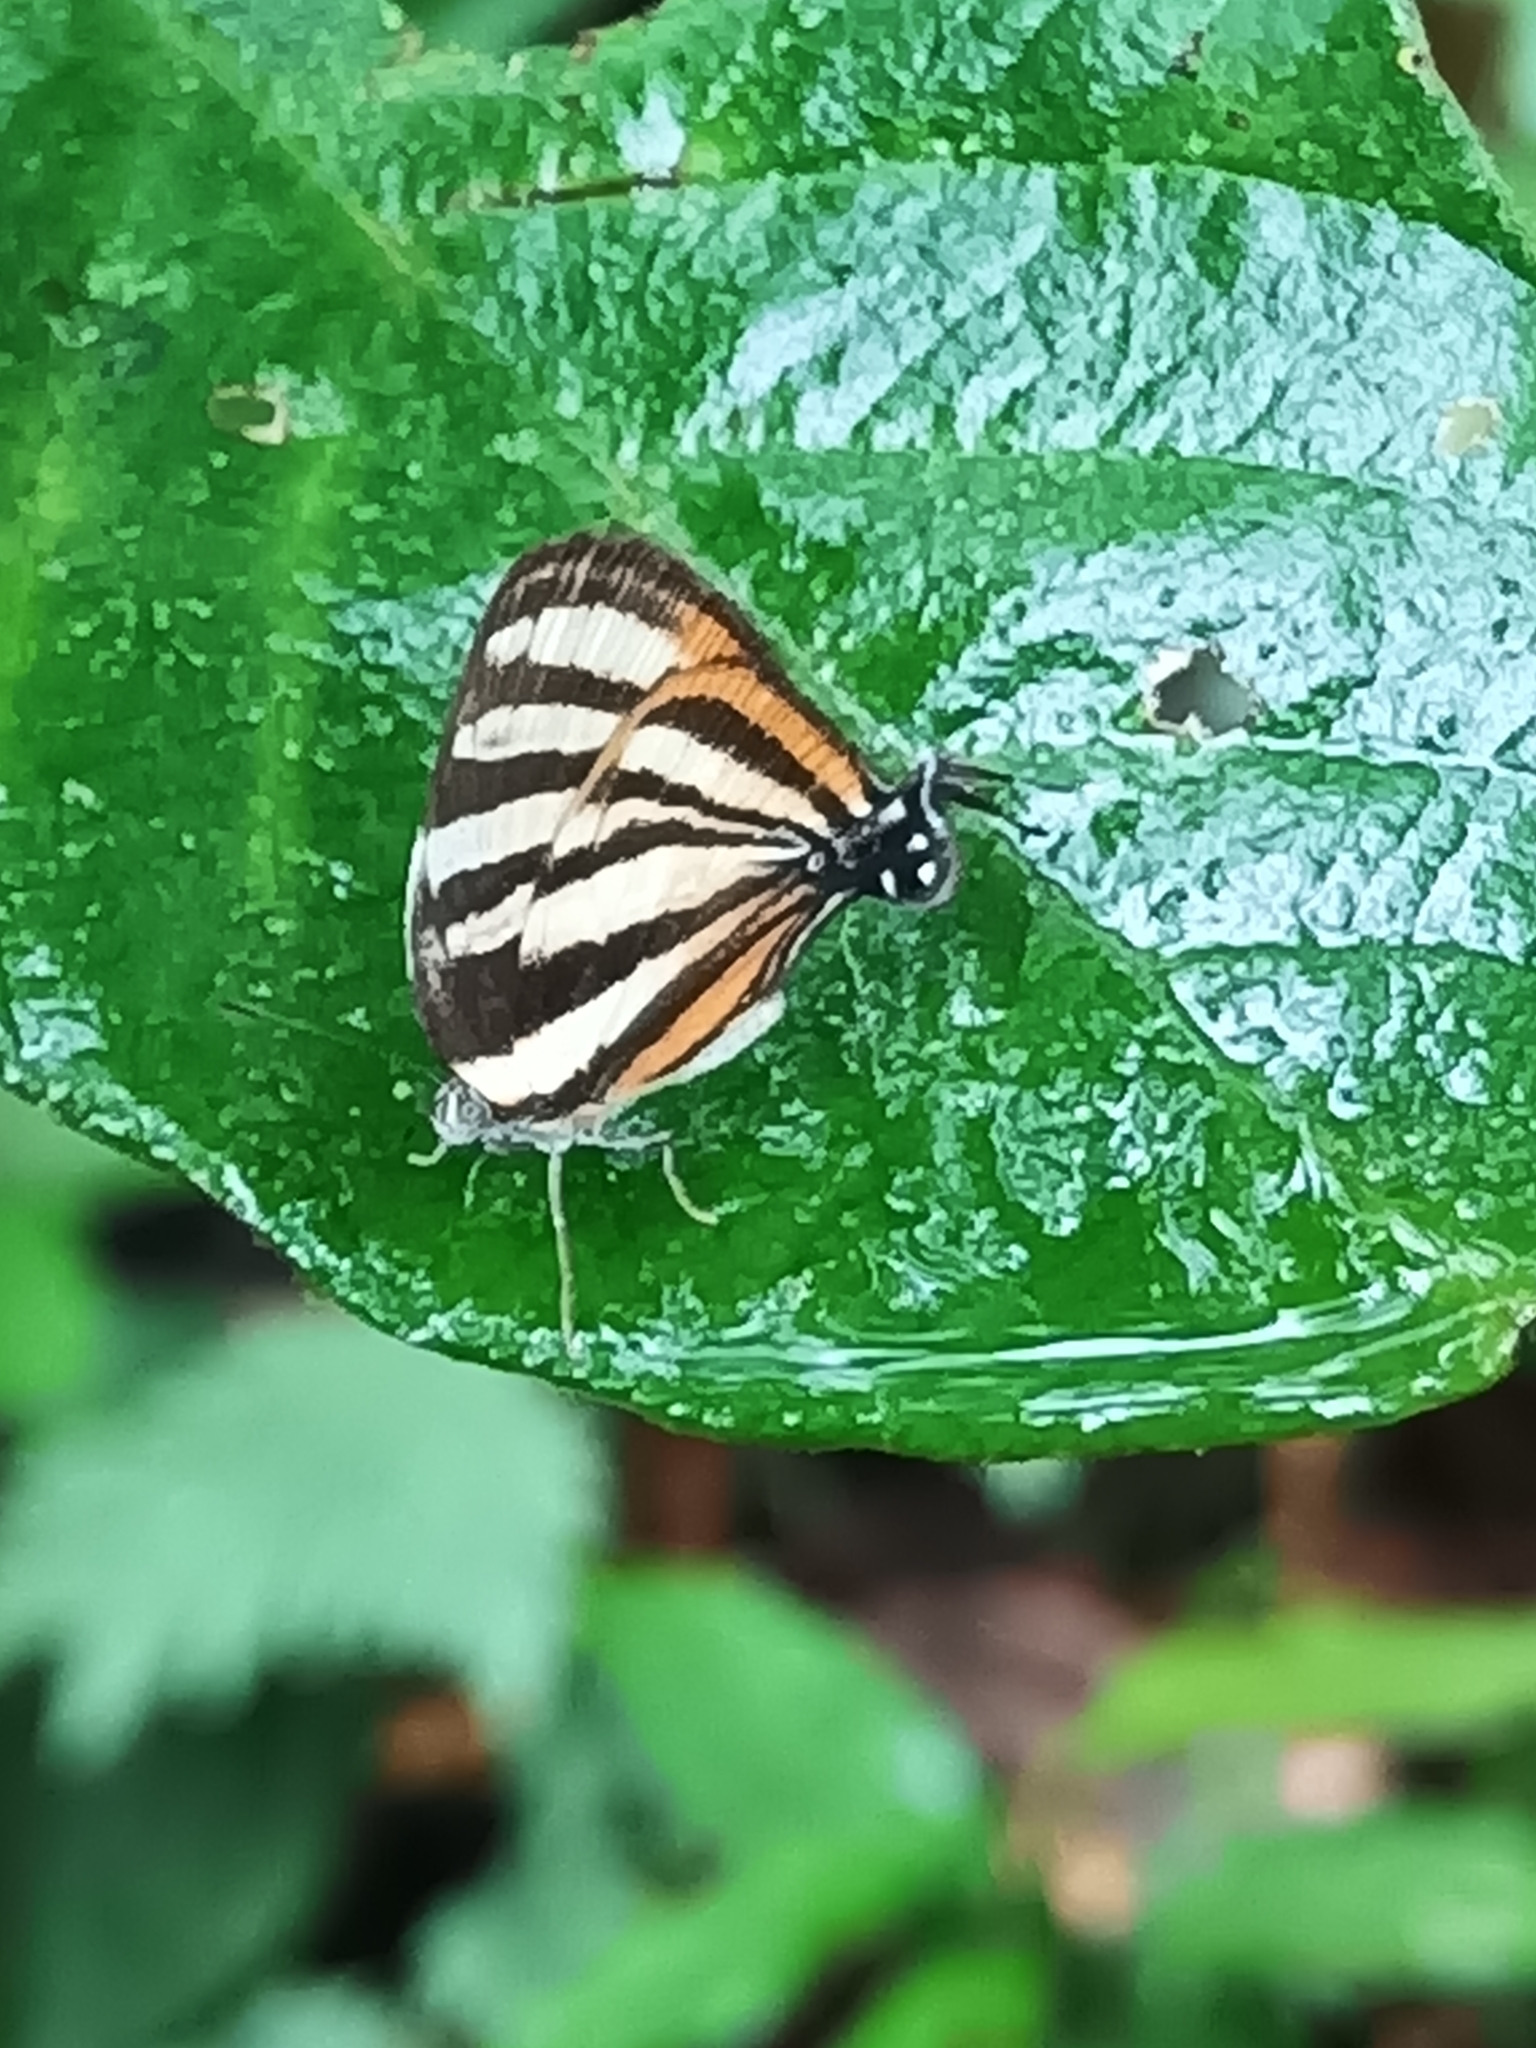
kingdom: Animalia
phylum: Arthropoda
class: Insecta
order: Lepidoptera
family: Lycaenidae
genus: Thecla
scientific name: Thecla aetolus
